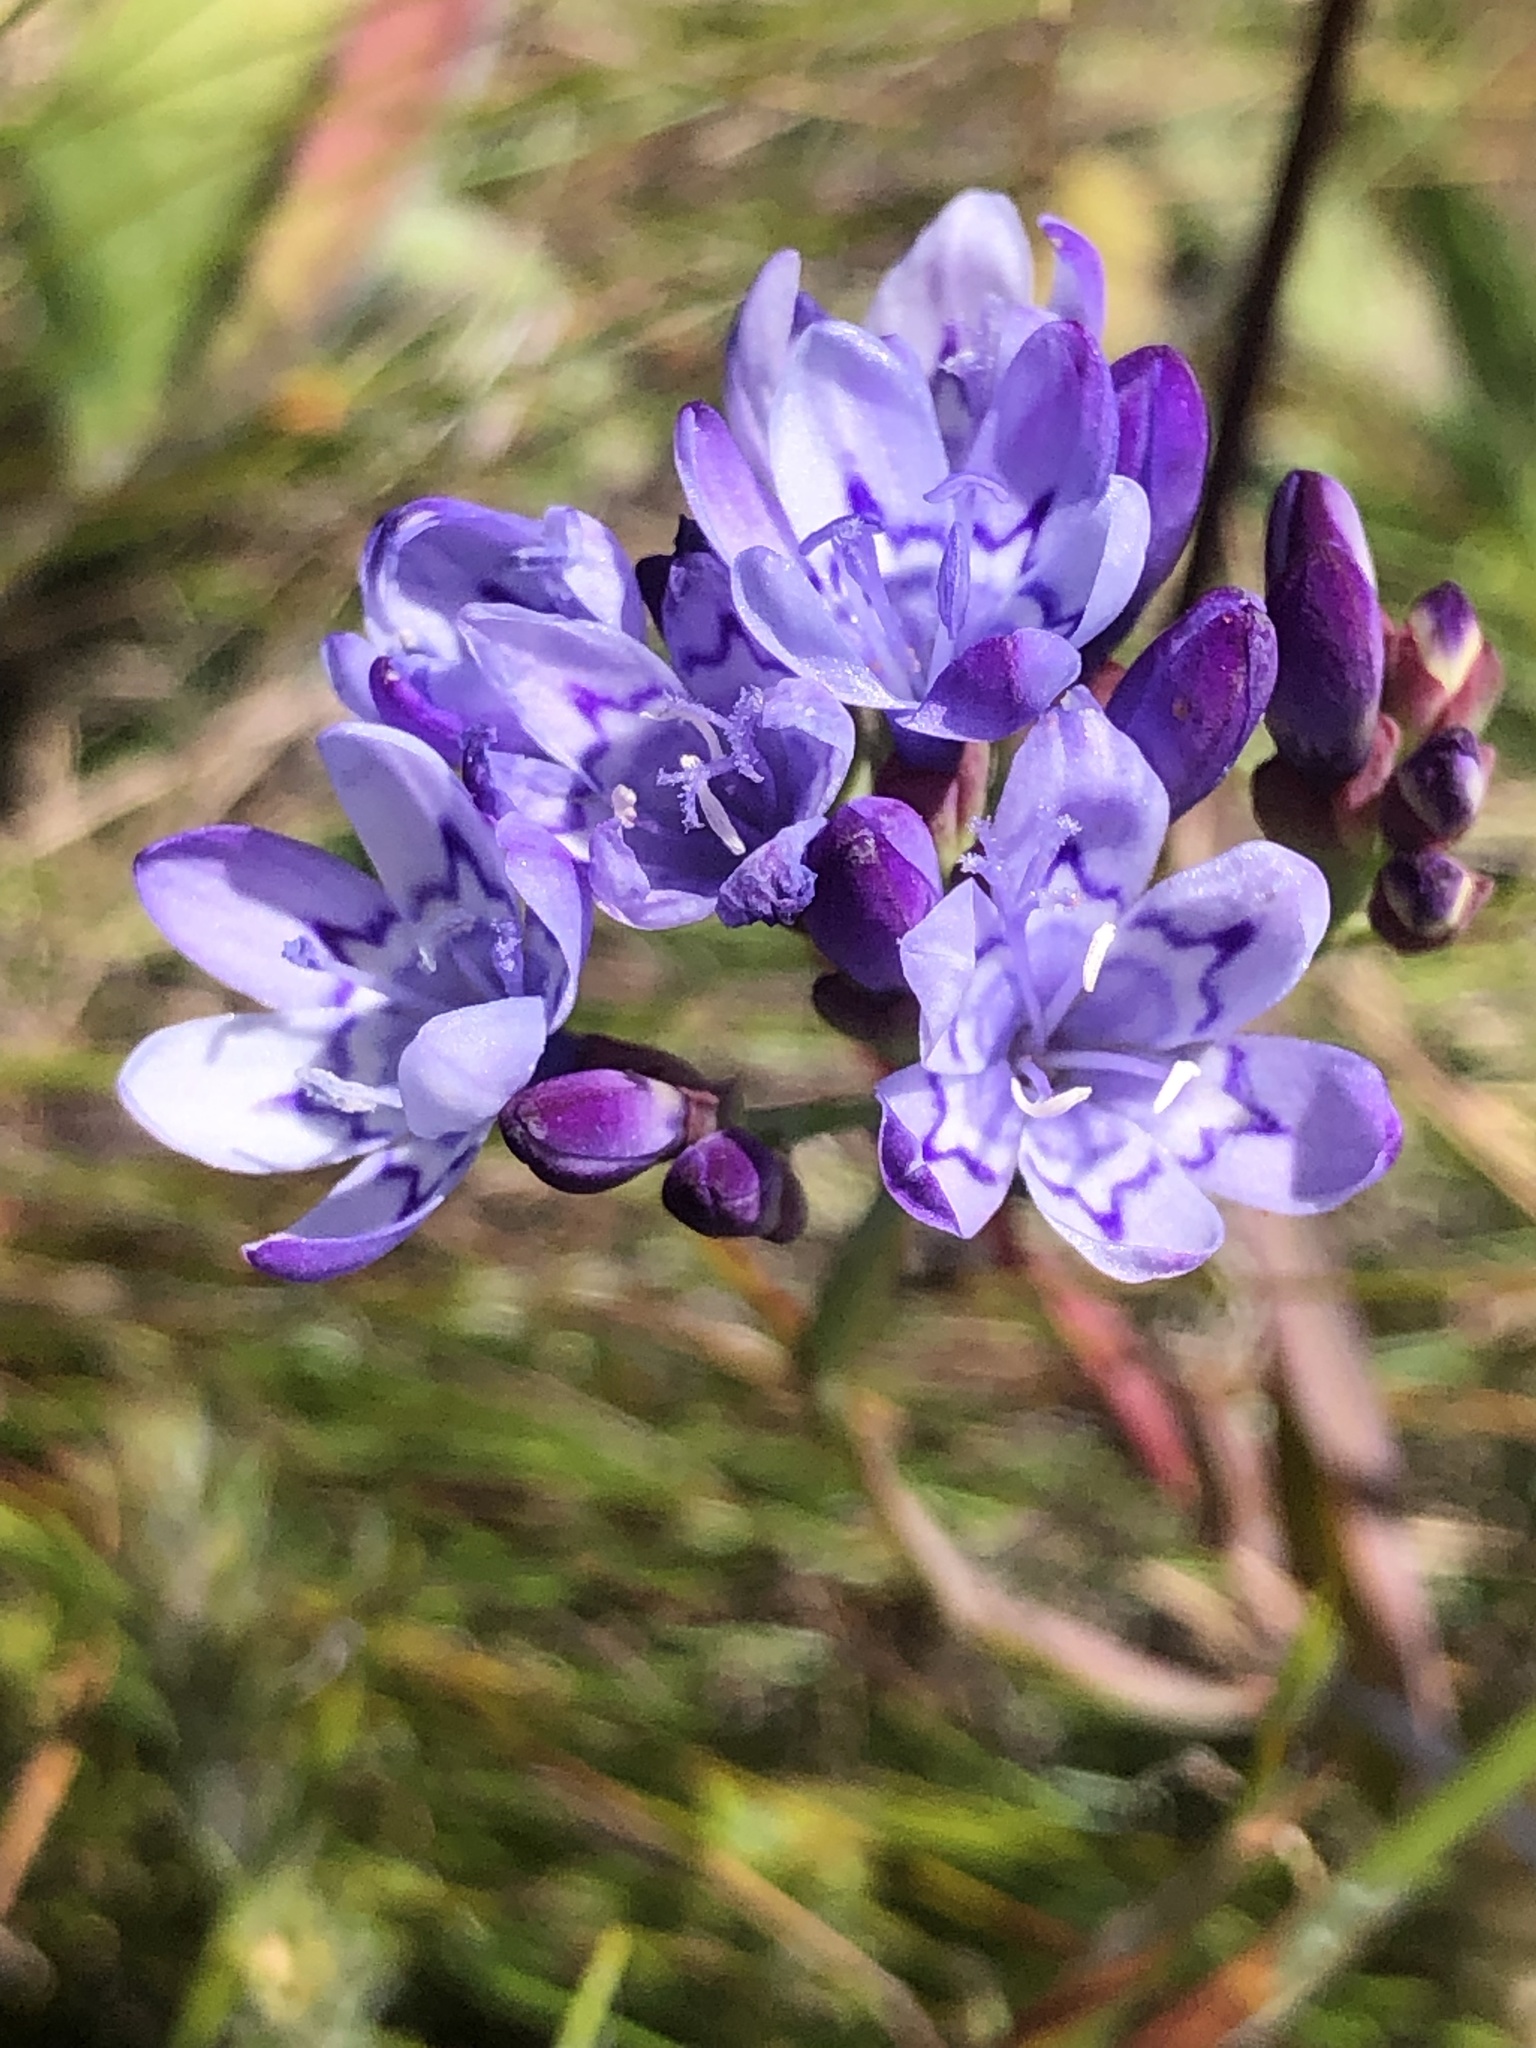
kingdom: Plantae
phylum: Tracheophyta
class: Liliopsida
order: Asparagales
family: Iridaceae
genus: Codonorhiza
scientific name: Codonorhiza corymbosa
